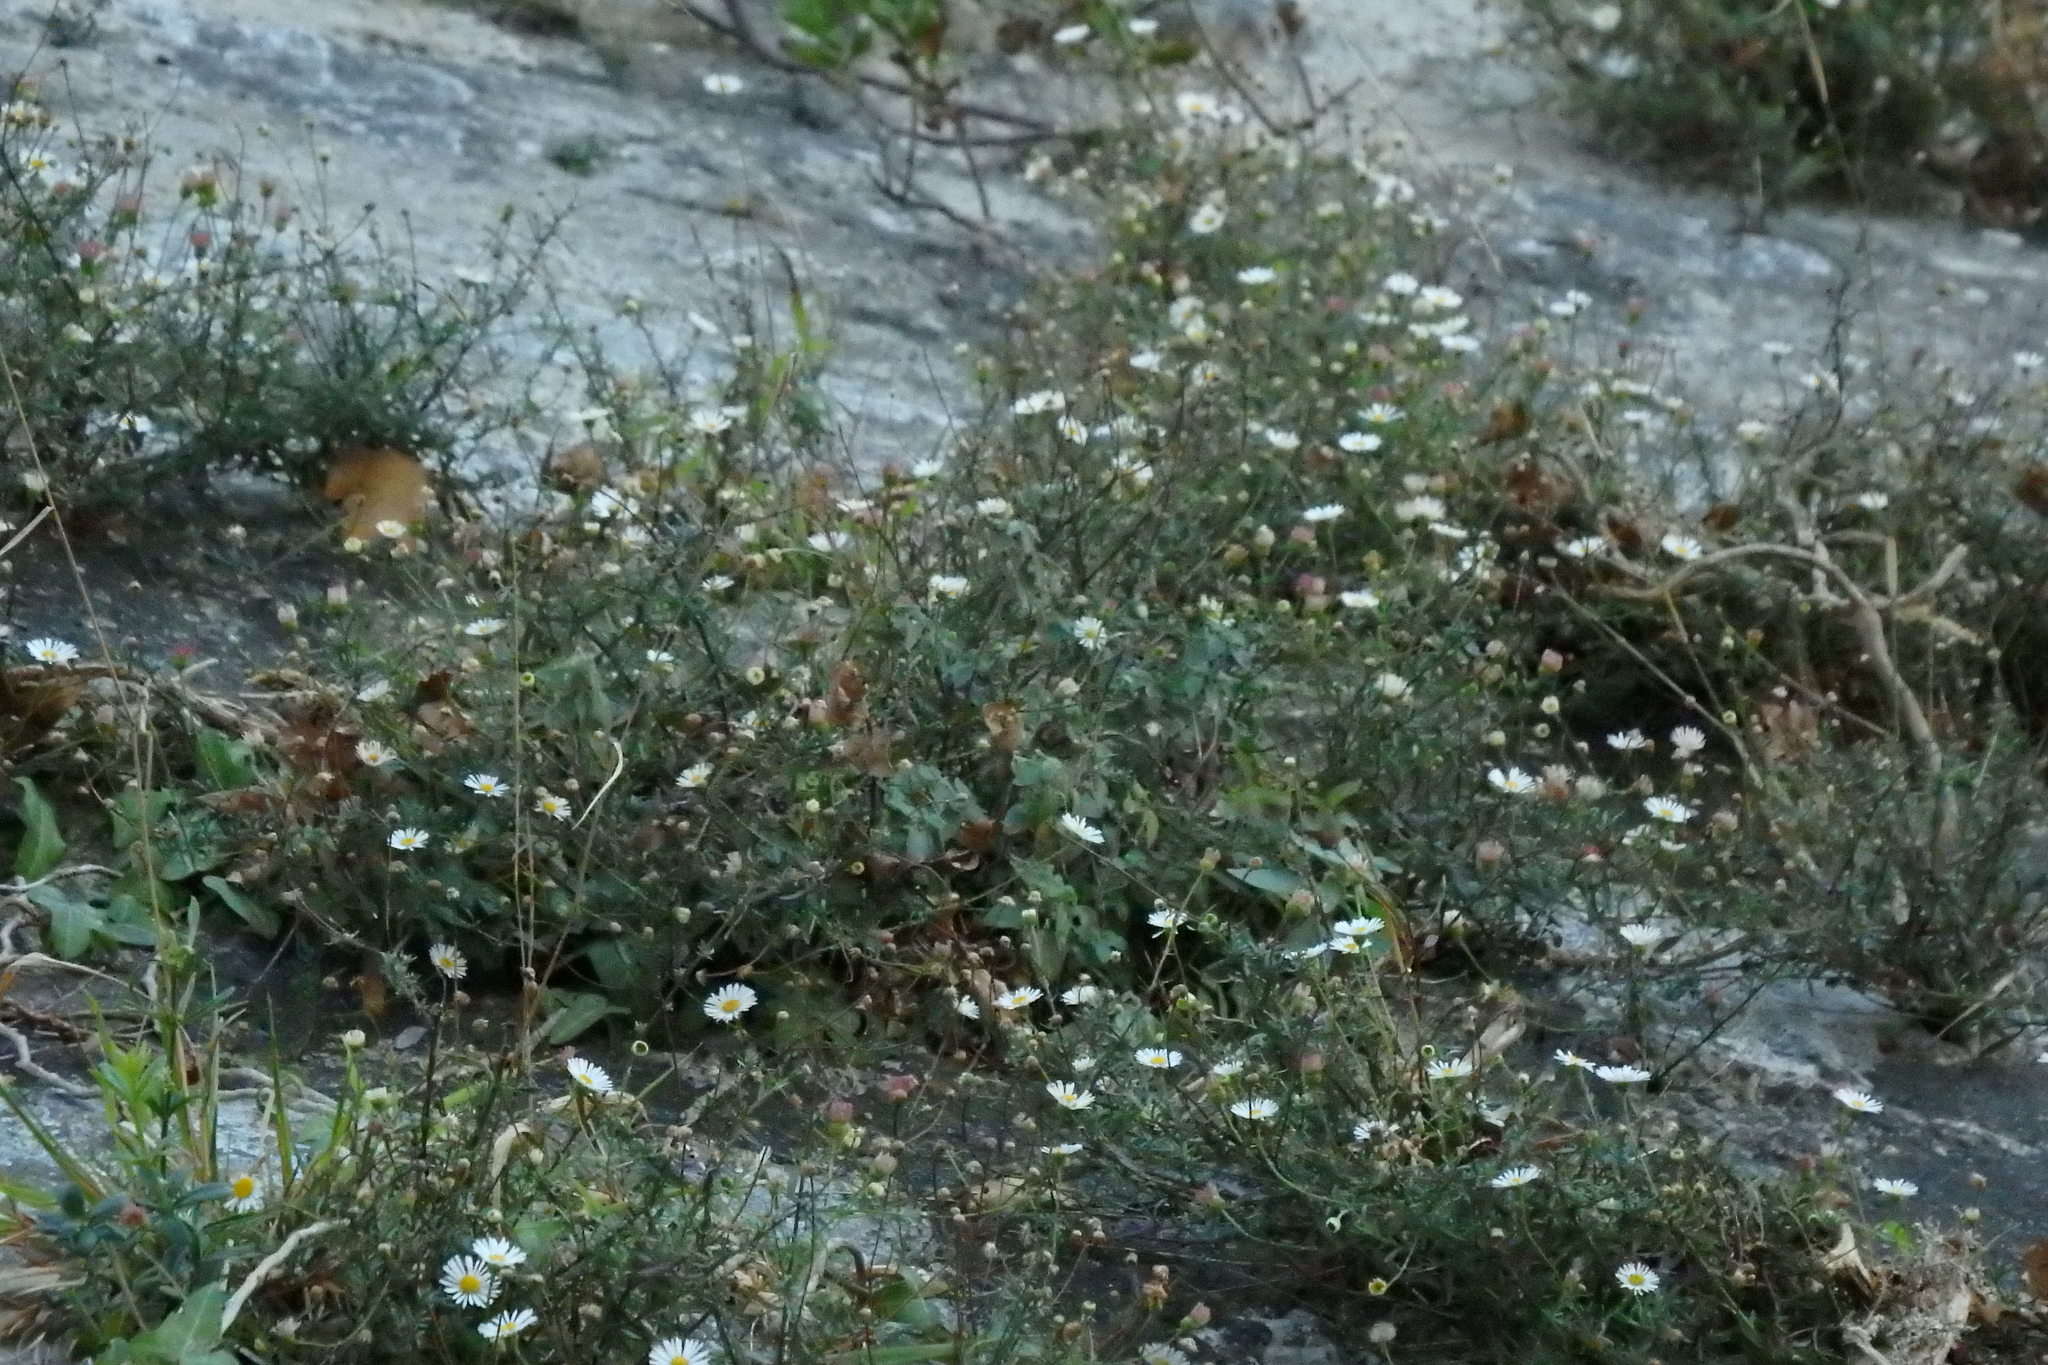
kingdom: Plantae
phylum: Tracheophyta
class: Magnoliopsida
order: Asterales
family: Asteraceae
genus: Erigeron
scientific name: Erigeron karvinskianus
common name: Mexican fleabane
